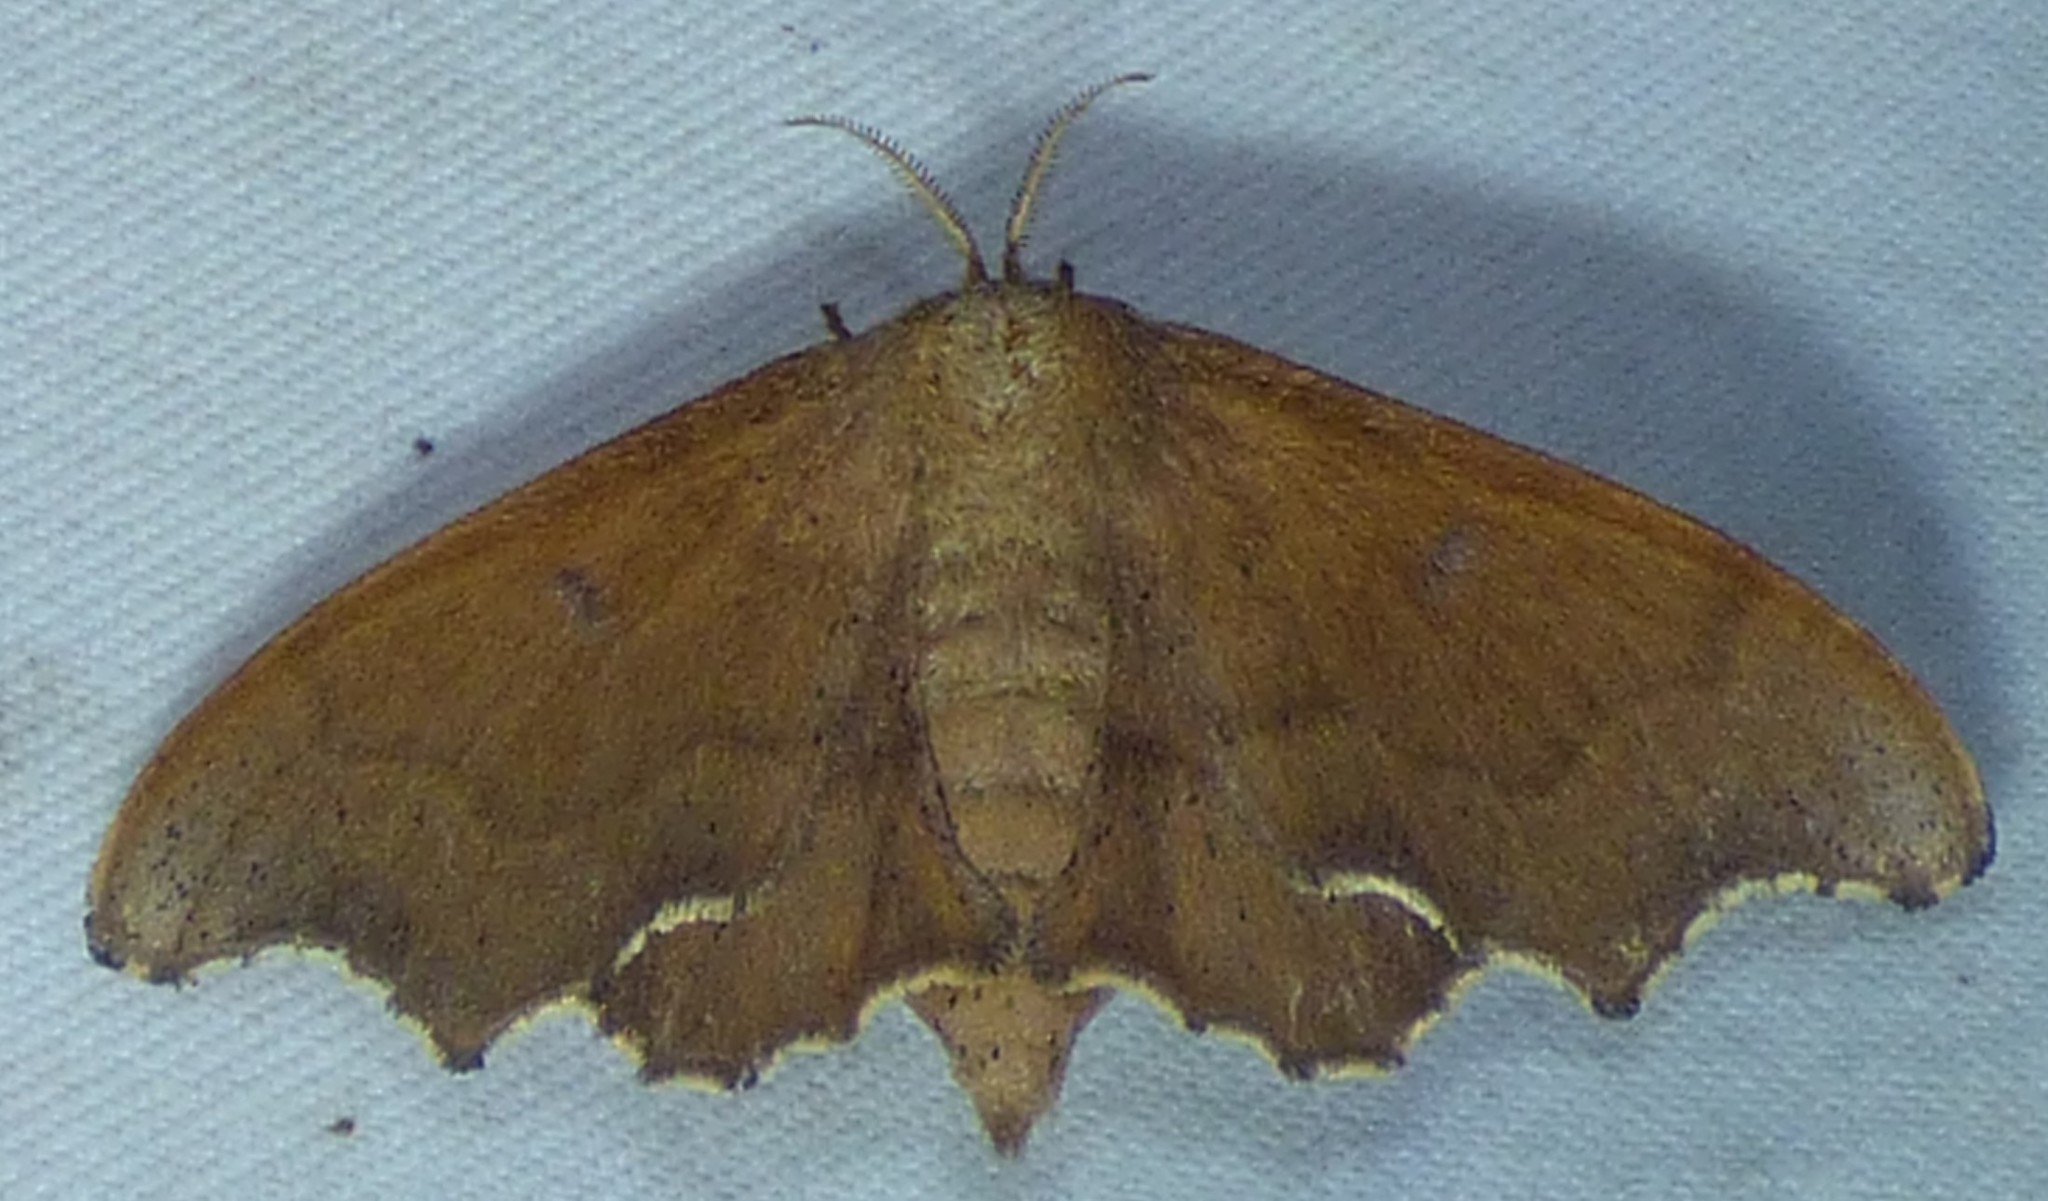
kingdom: Animalia
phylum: Arthropoda
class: Insecta
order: Lepidoptera
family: Mimallonidae
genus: Lacosoma
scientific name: Lacosoma chiridota
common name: Scalloped sack-bearer moth
